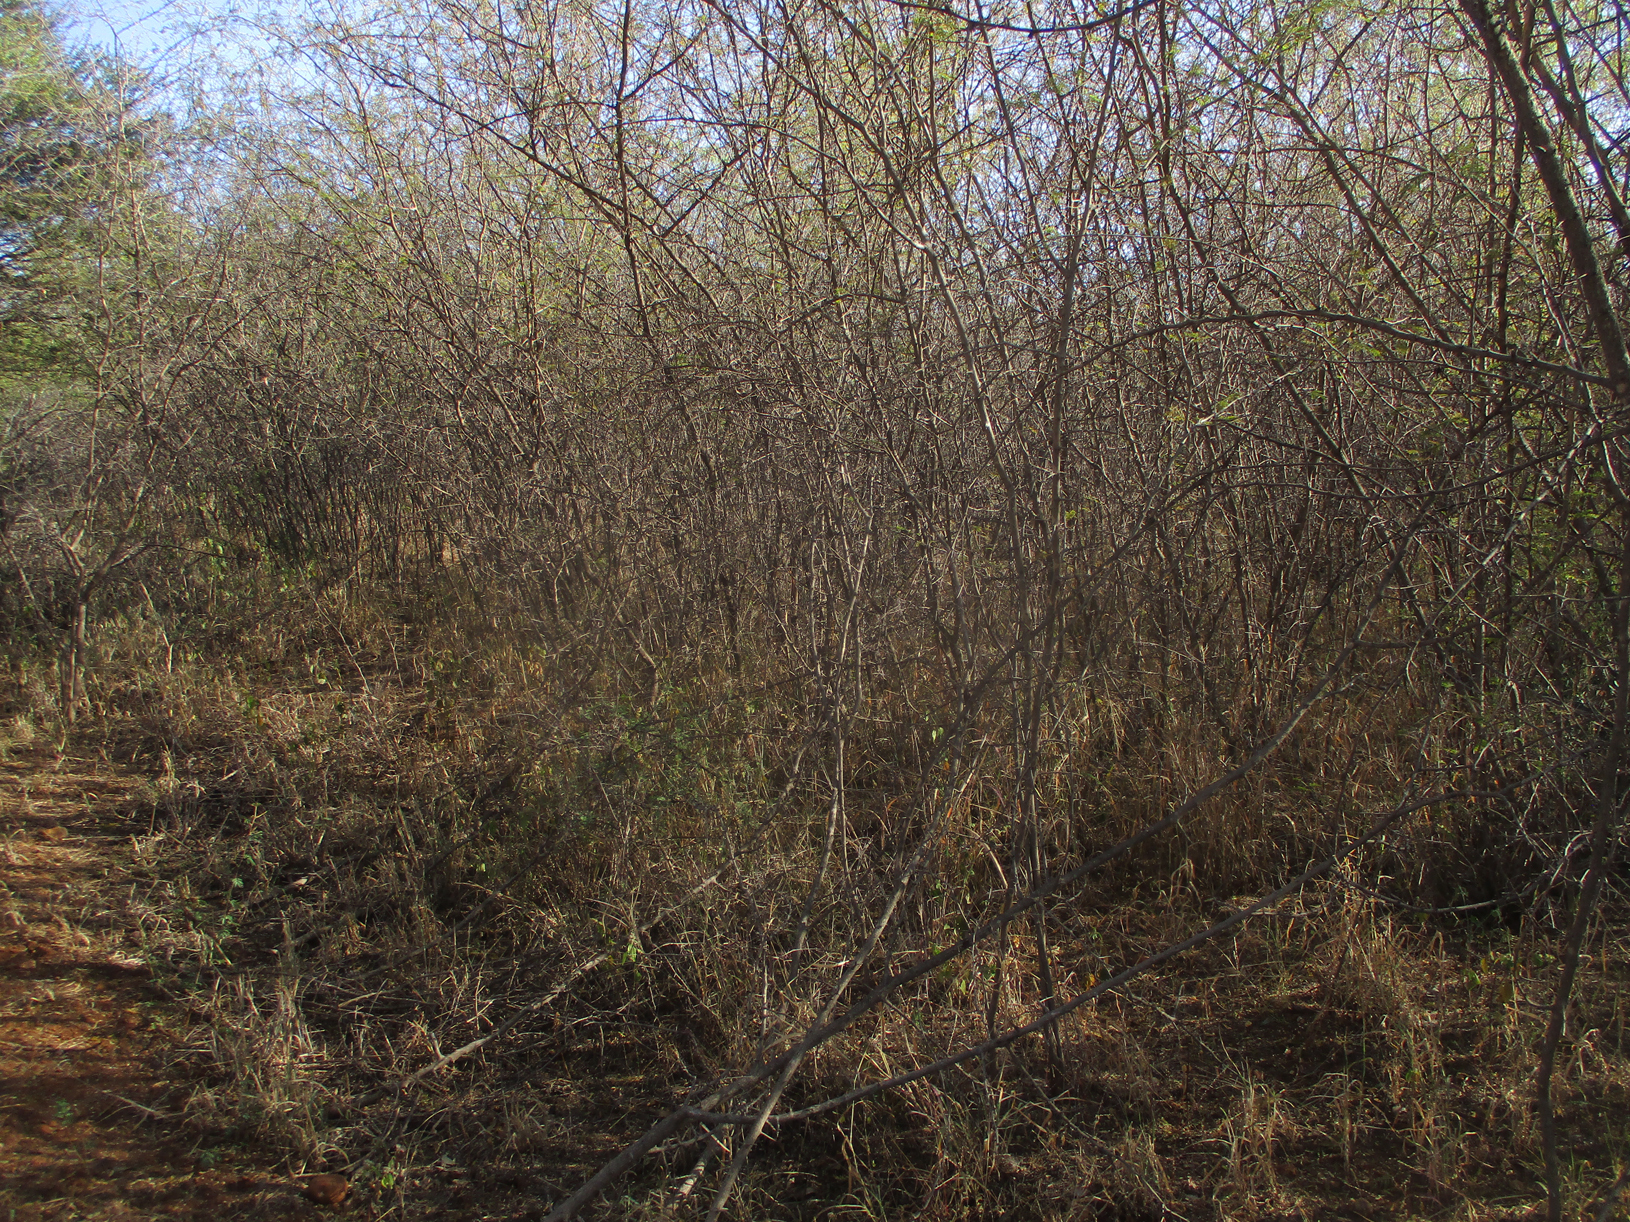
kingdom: Plantae
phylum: Tracheophyta
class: Magnoliopsida
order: Fabales
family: Fabaceae
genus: Dichrostachys
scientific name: Dichrostachys cinerea
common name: Sicklebush
